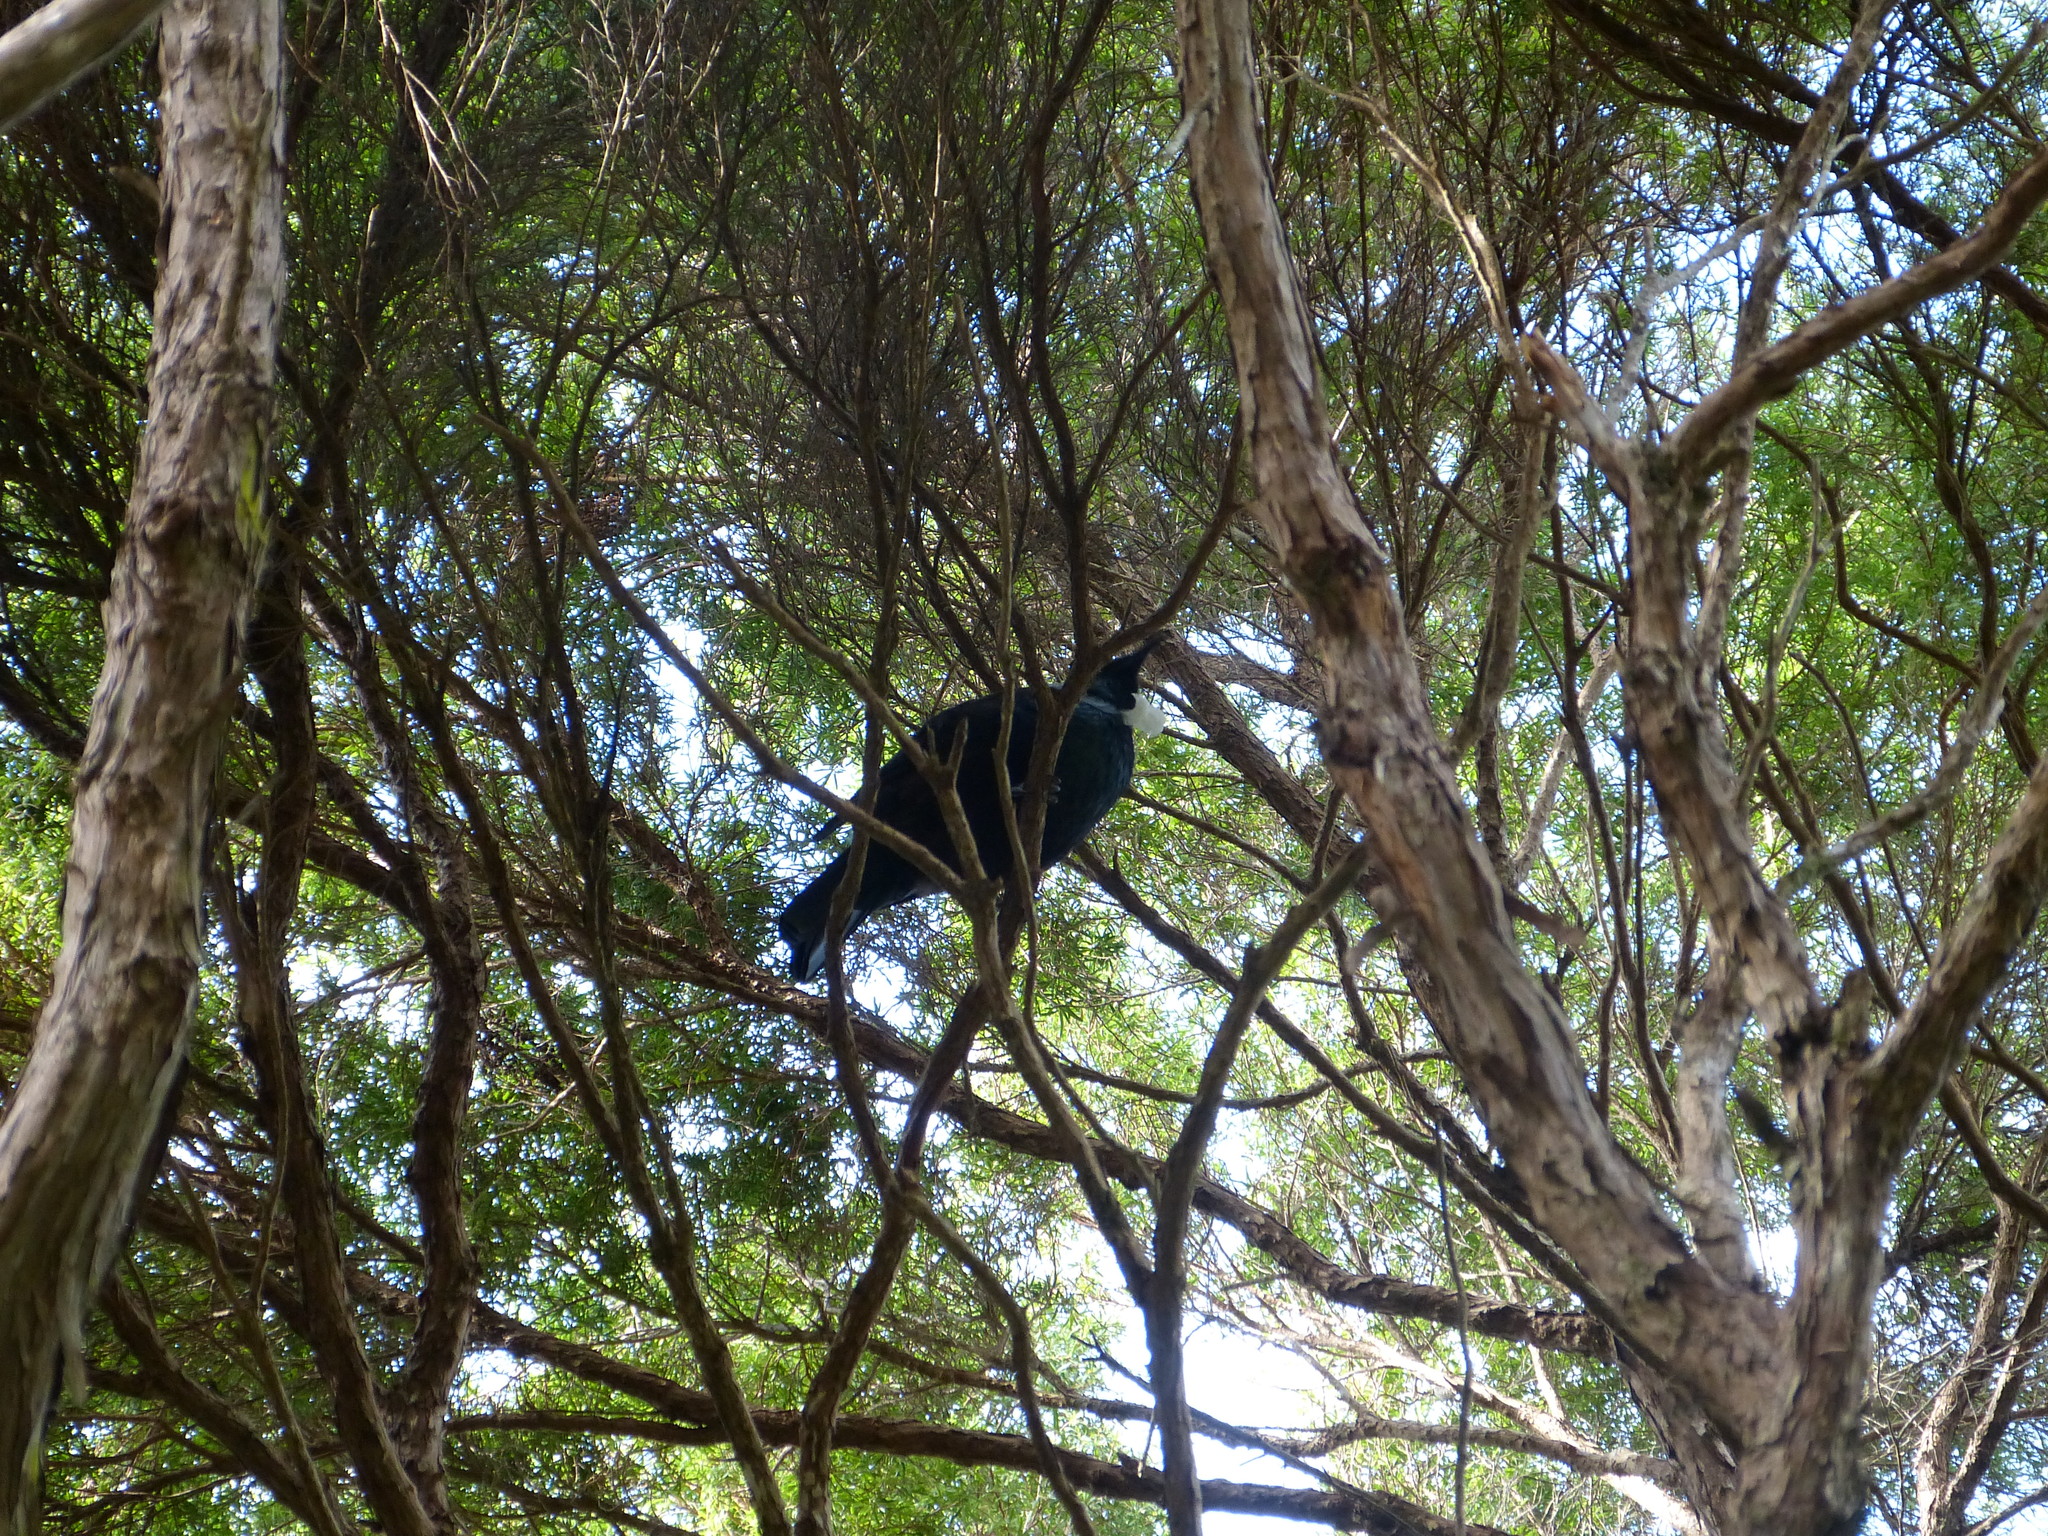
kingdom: Animalia
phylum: Chordata
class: Aves
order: Passeriformes
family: Meliphagidae
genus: Prosthemadera
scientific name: Prosthemadera novaeseelandiae
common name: Tui
